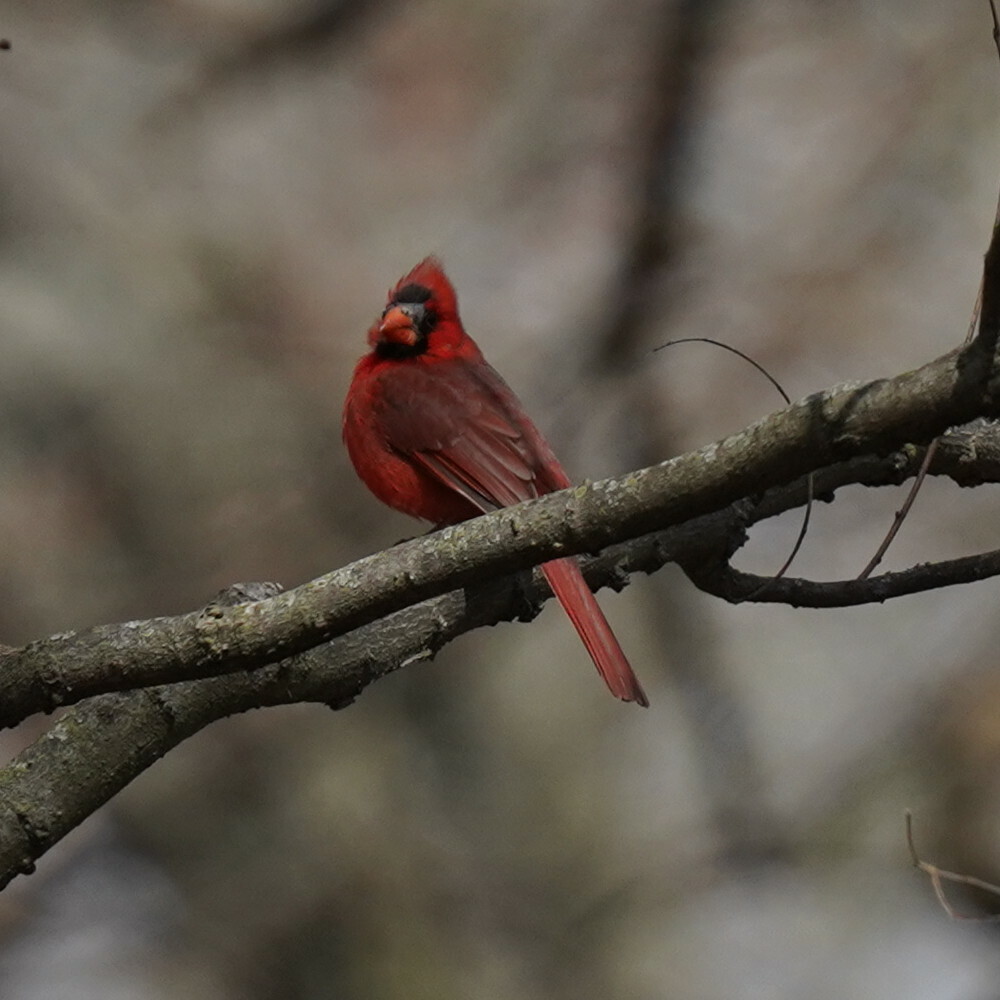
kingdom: Animalia
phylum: Chordata
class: Aves
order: Passeriformes
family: Cardinalidae
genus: Cardinalis
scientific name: Cardinalis cardinalis
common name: Northern cardinal
